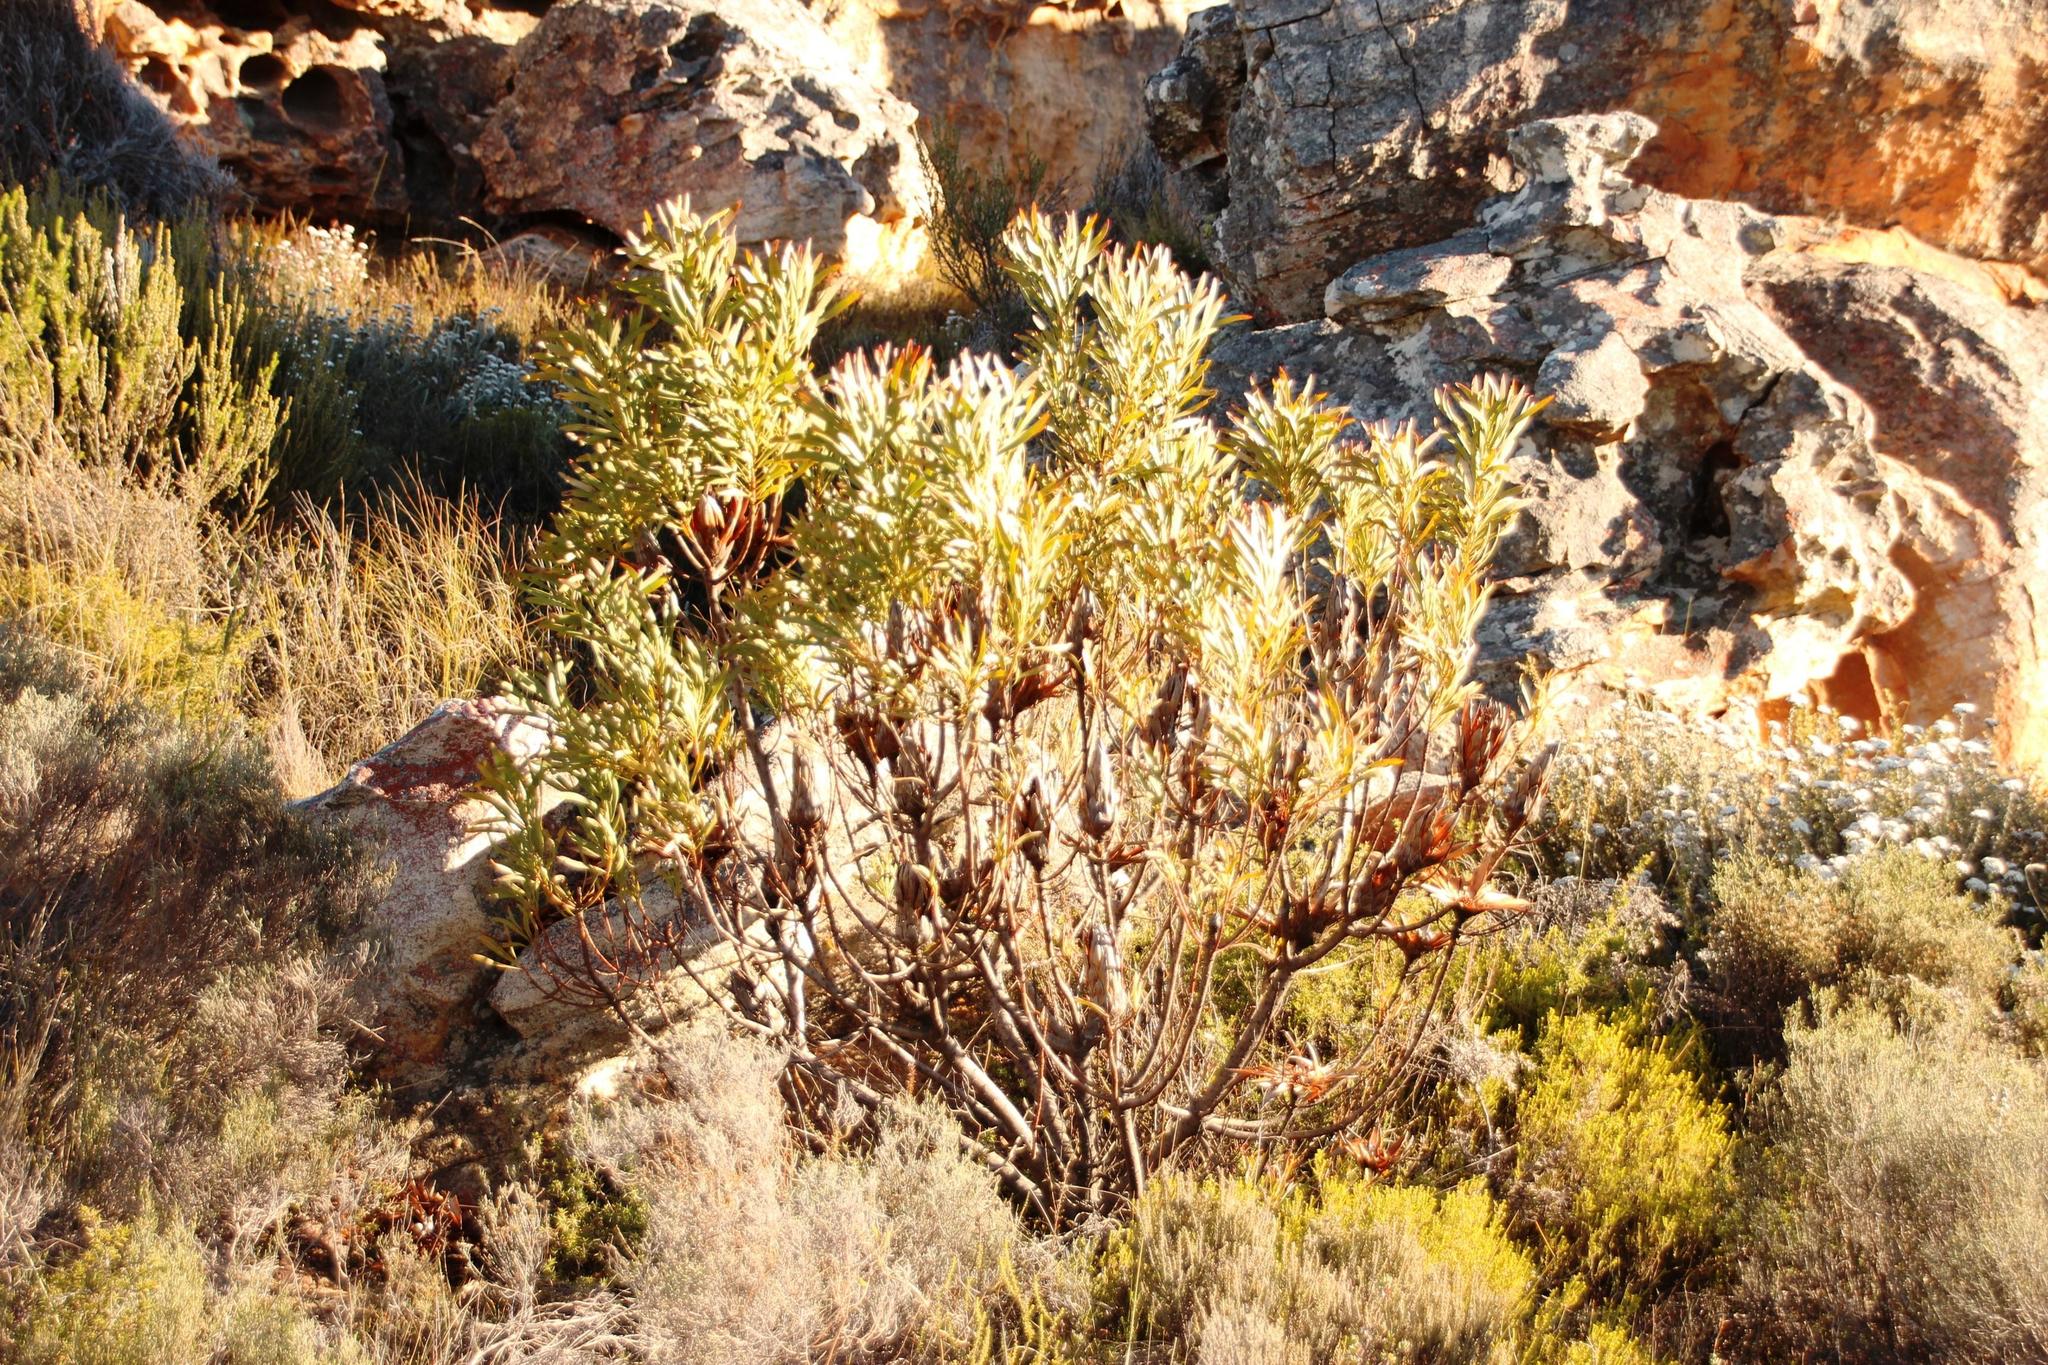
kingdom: Plantae
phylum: Tracheophyta
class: Magnoliopsida
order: Proteales
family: Proteaceae
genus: Protea
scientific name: Protea repens
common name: Sugarbush
